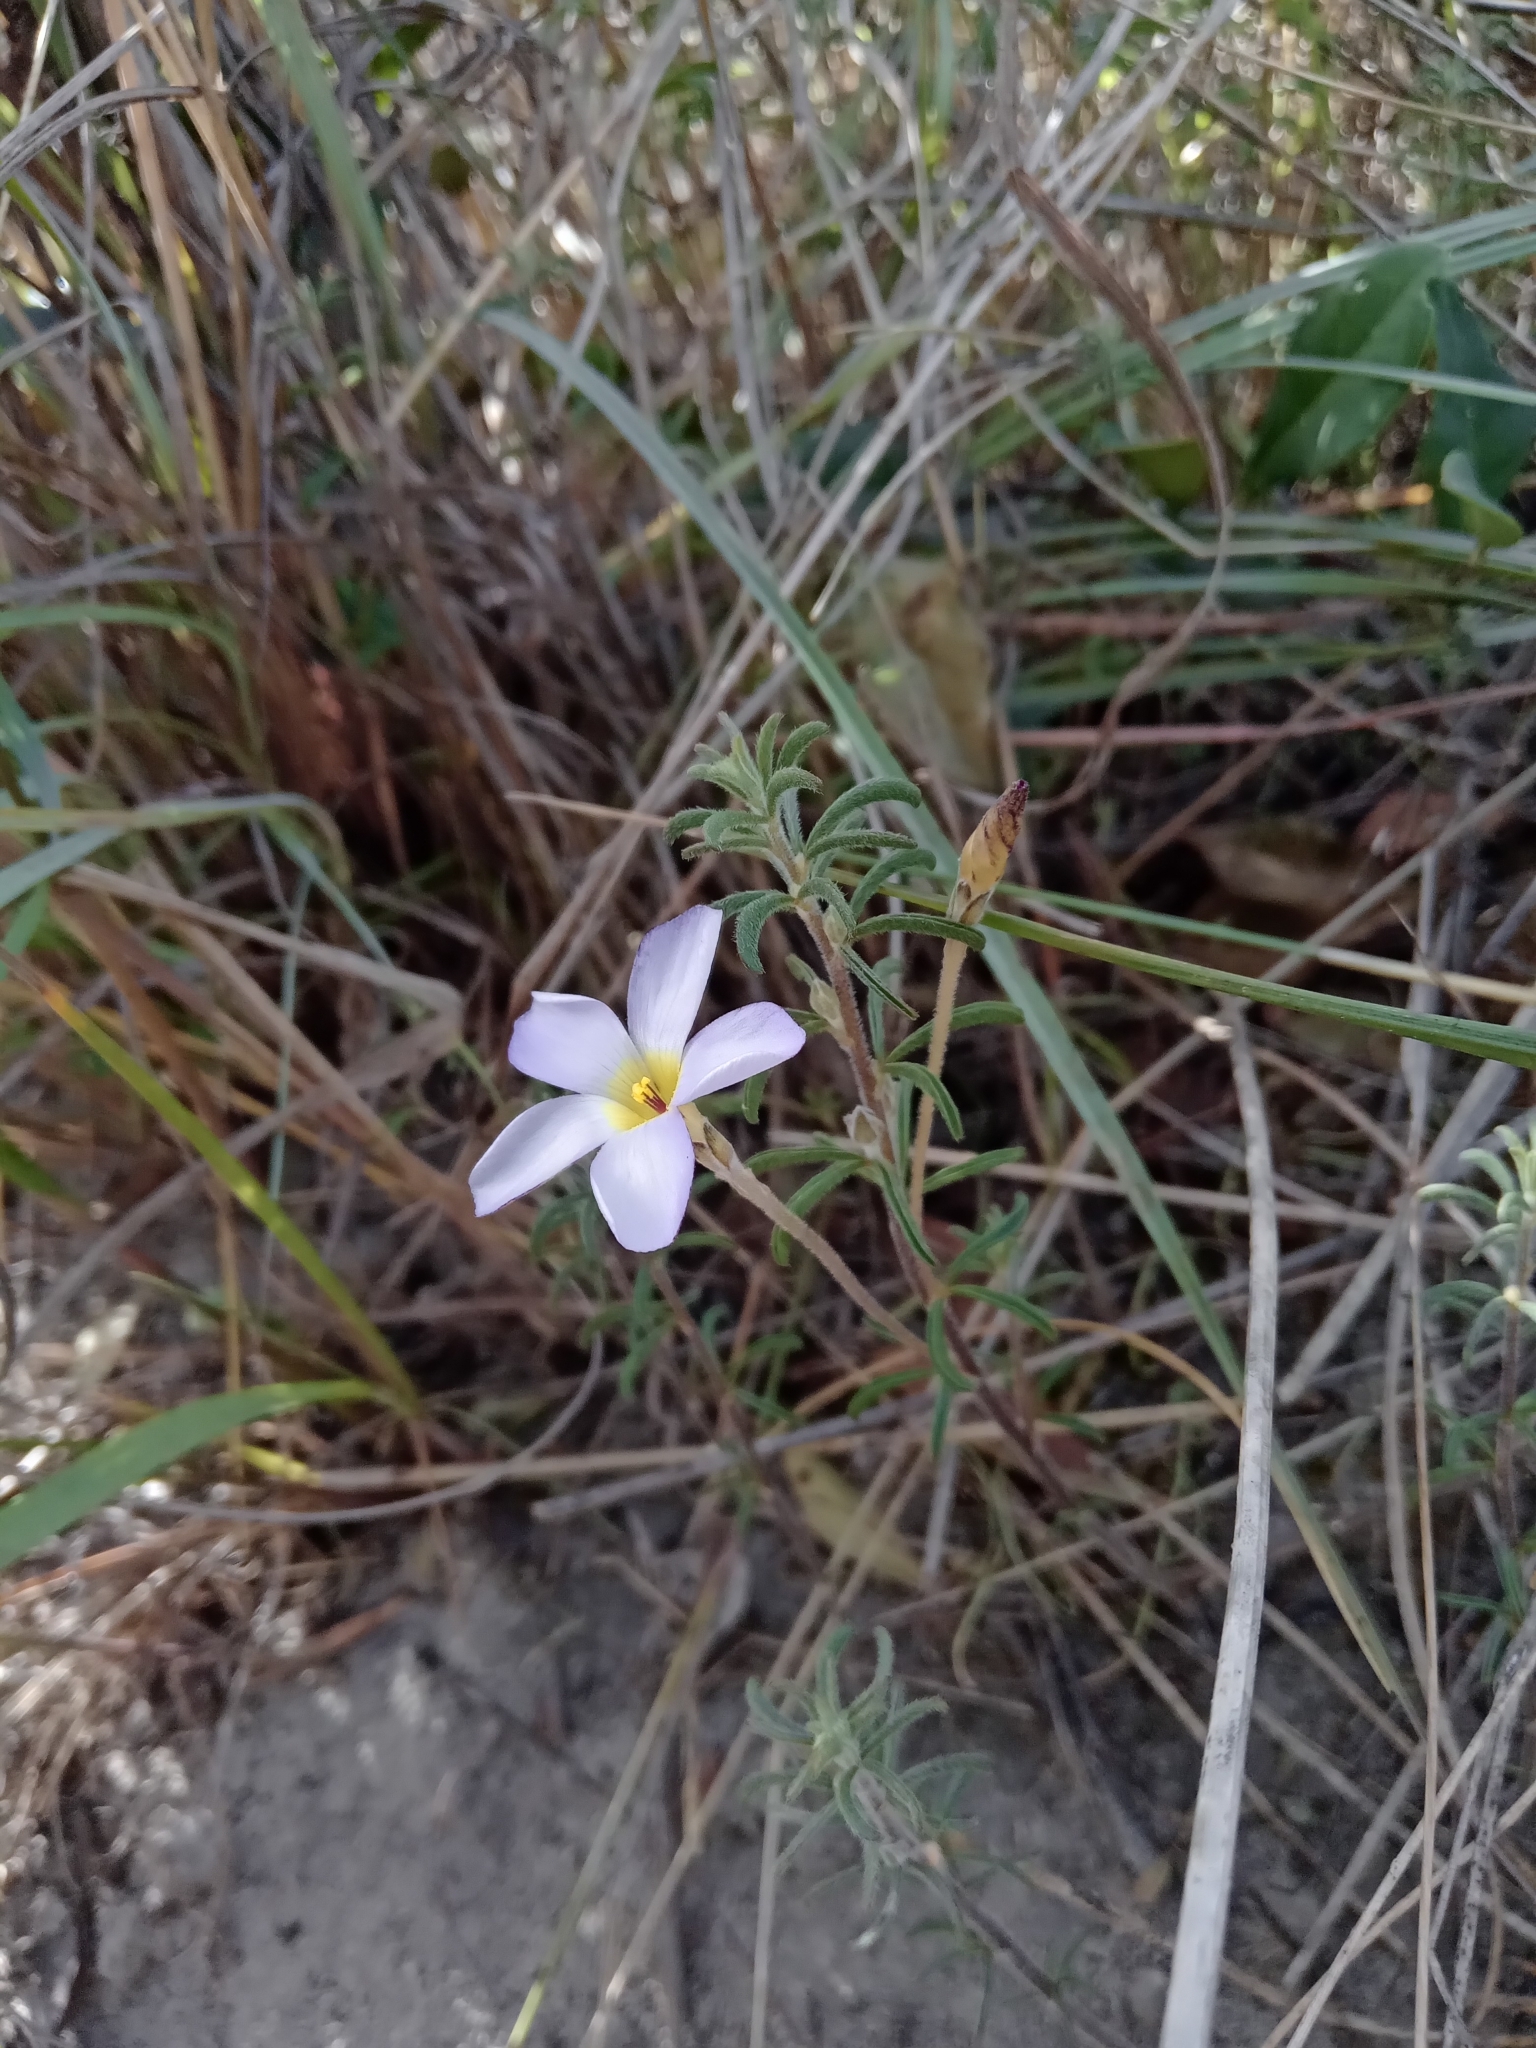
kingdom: Plantae
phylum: Tracheophyta
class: Magnoliopsida
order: Oxalidales
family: Oxalidaceae
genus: Oxalis
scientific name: Oxalis hirta
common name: Tropical woodsorrel
